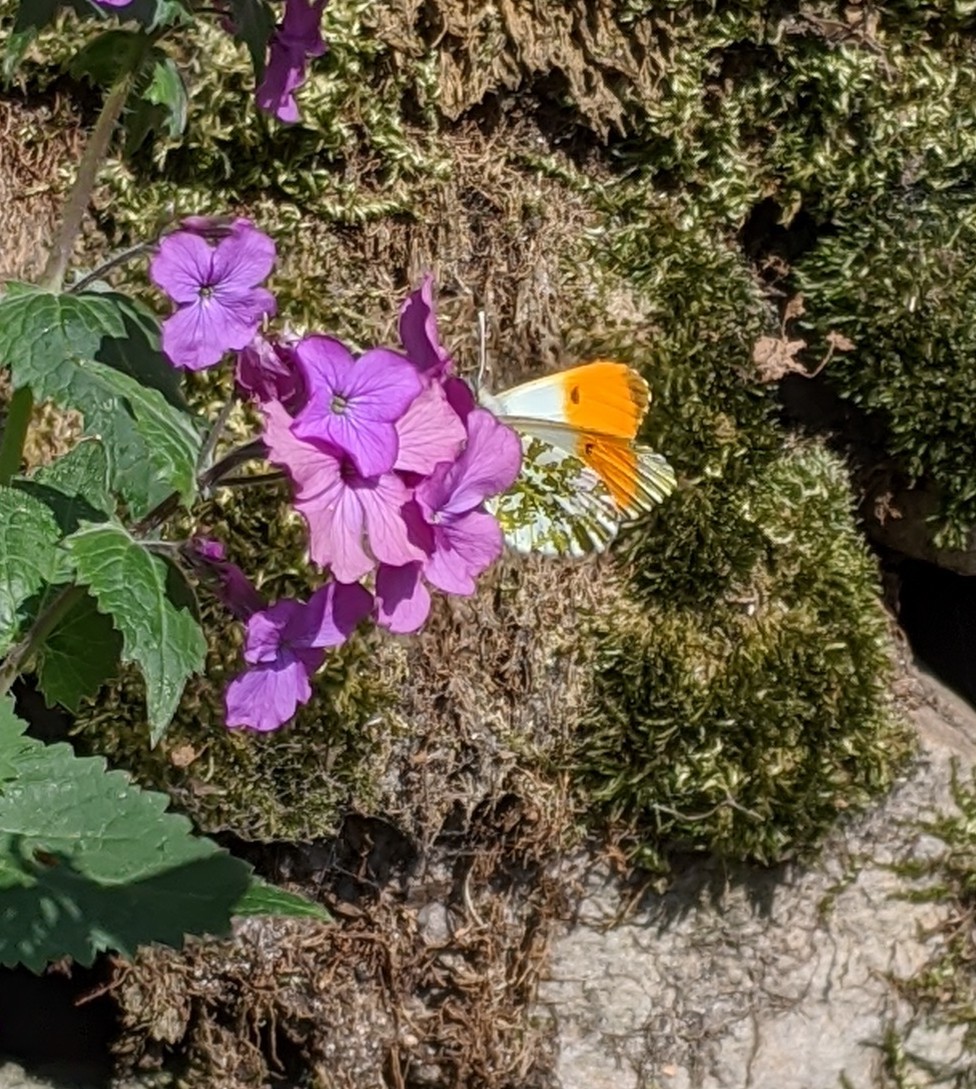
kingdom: Animalia
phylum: Arthropoda
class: Insecta
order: Lepidoptera
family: Pieridae
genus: Anthocharis
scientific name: Anthocharis cardamines
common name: Orange-tip
